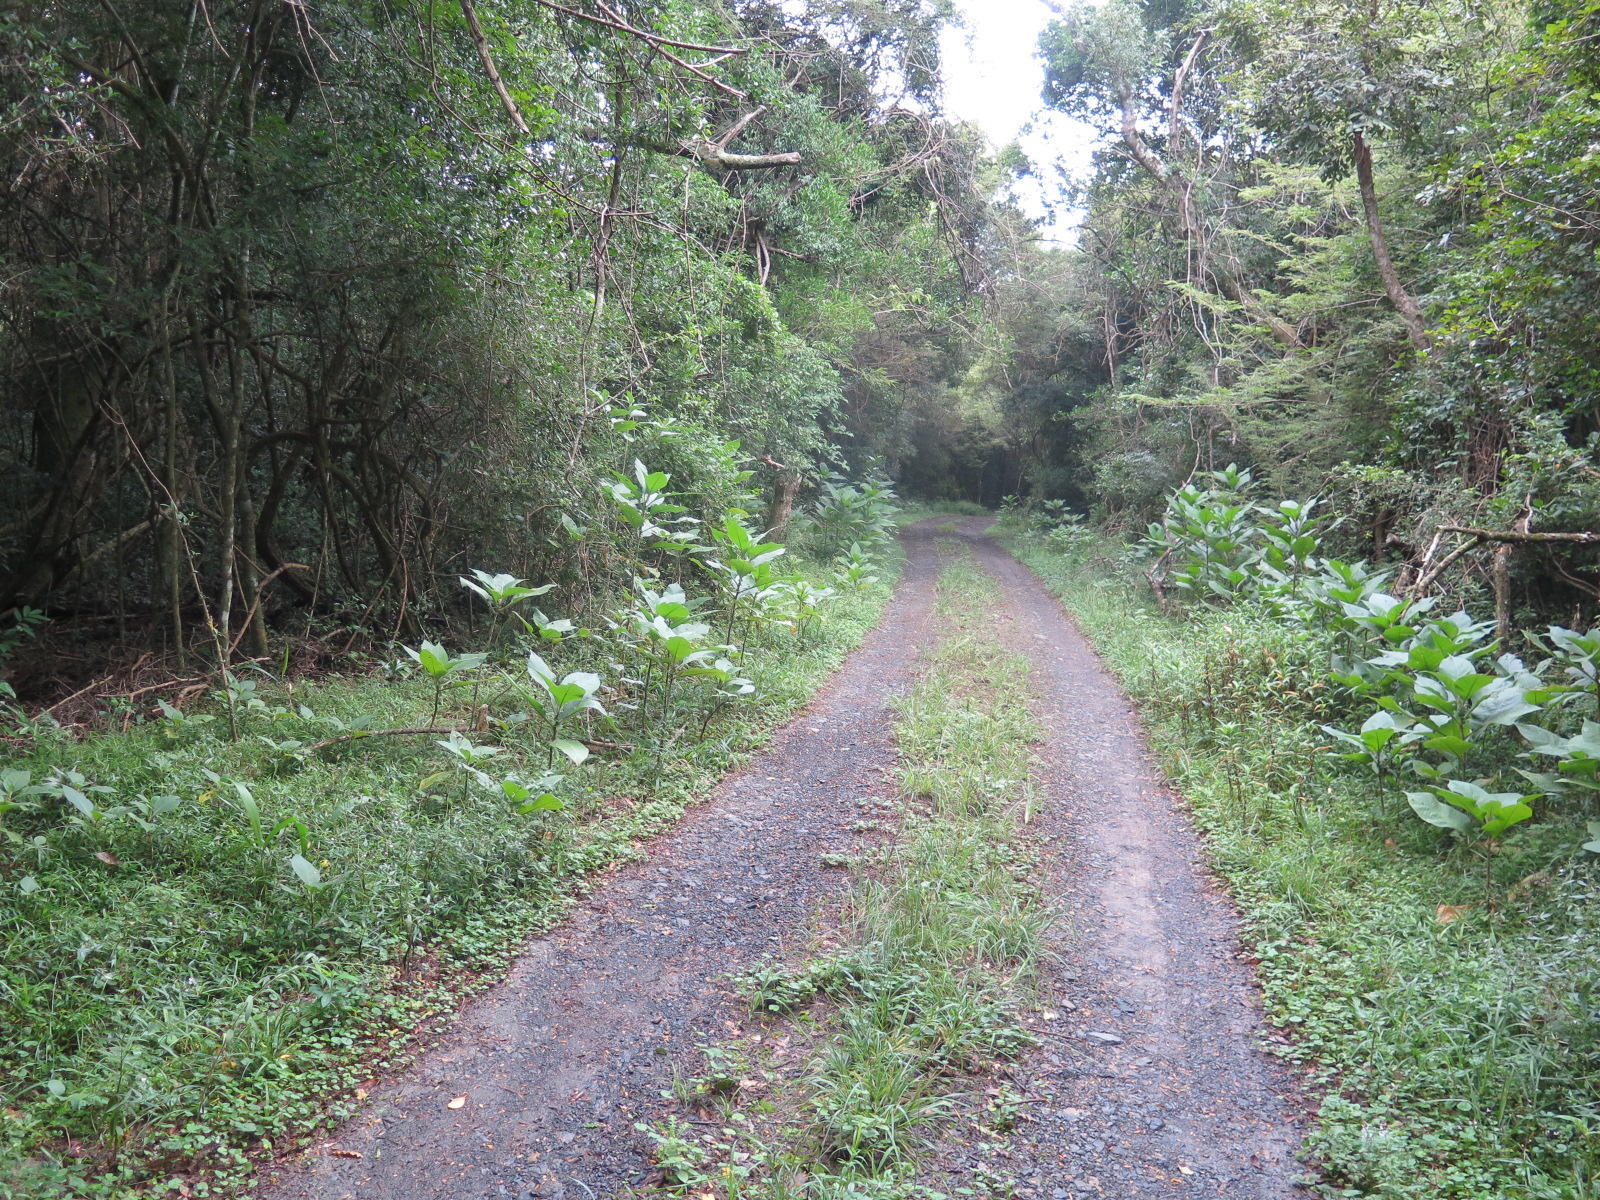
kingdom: Plantae
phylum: Tracheophyta
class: Magnoliopsida
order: Solanales
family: Solanaceae
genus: Solanum
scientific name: Solanum mauritianum
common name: Earleaf nightshade
